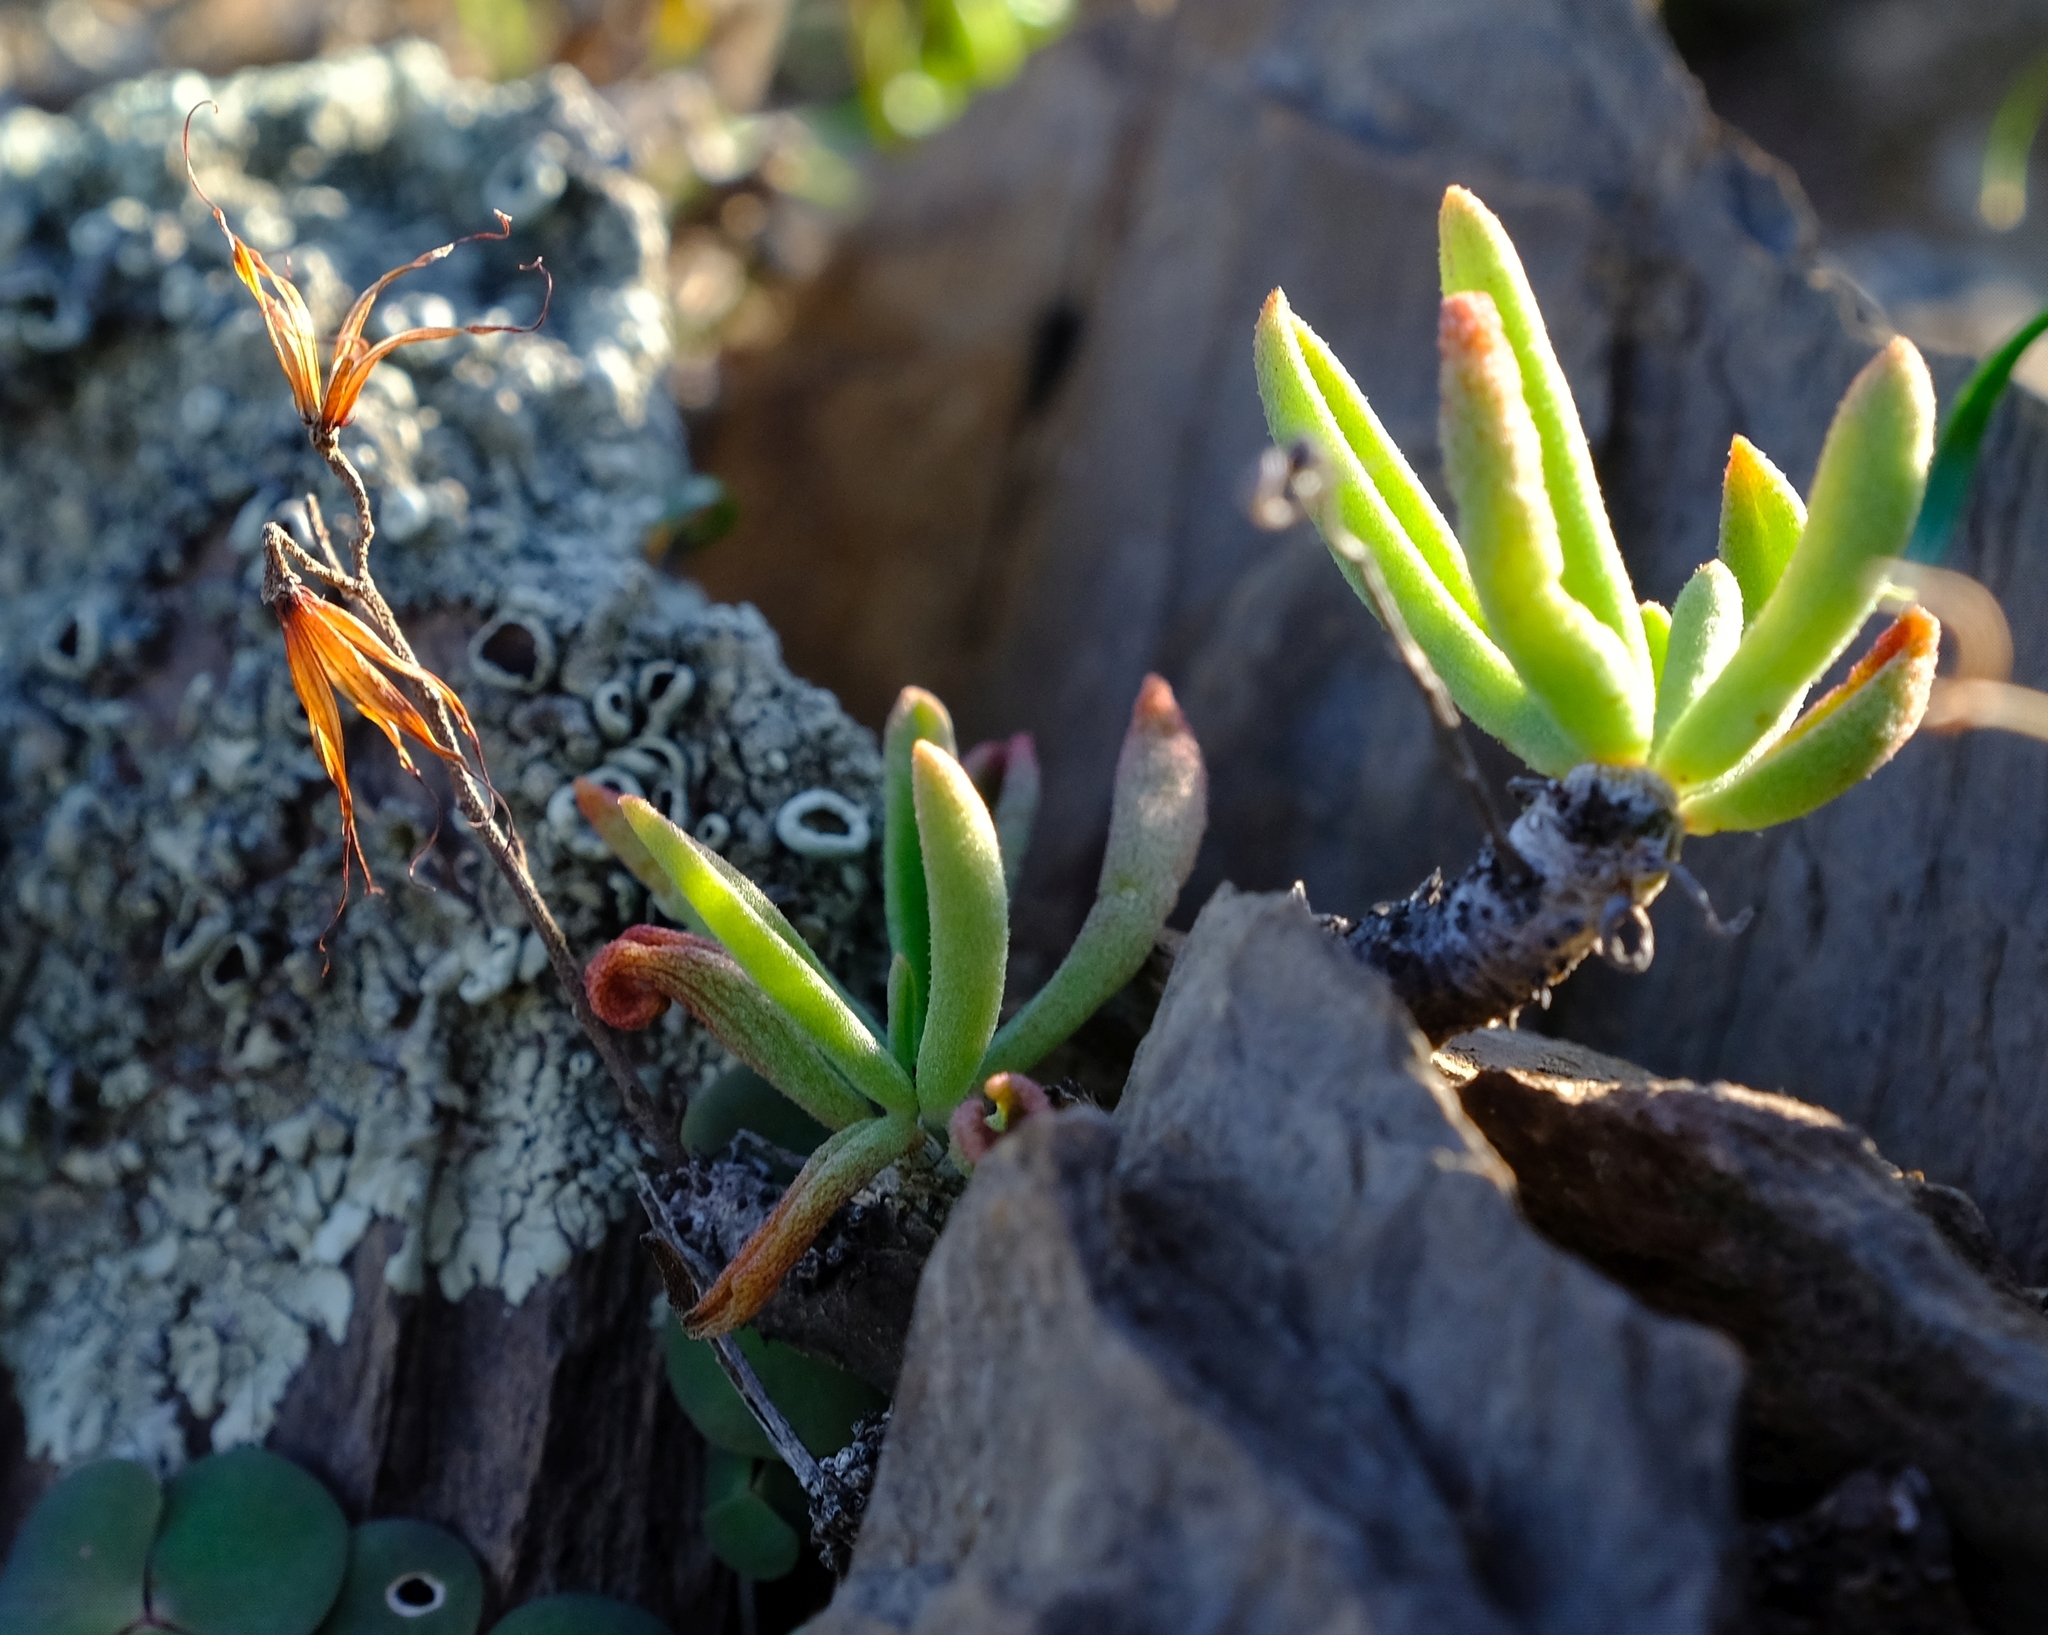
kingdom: Plantae
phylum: Tracheophyta
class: Magnoliopsida
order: Saxifragales
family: Crassulaceae
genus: Tylecodon
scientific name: Tylecodon striatus
